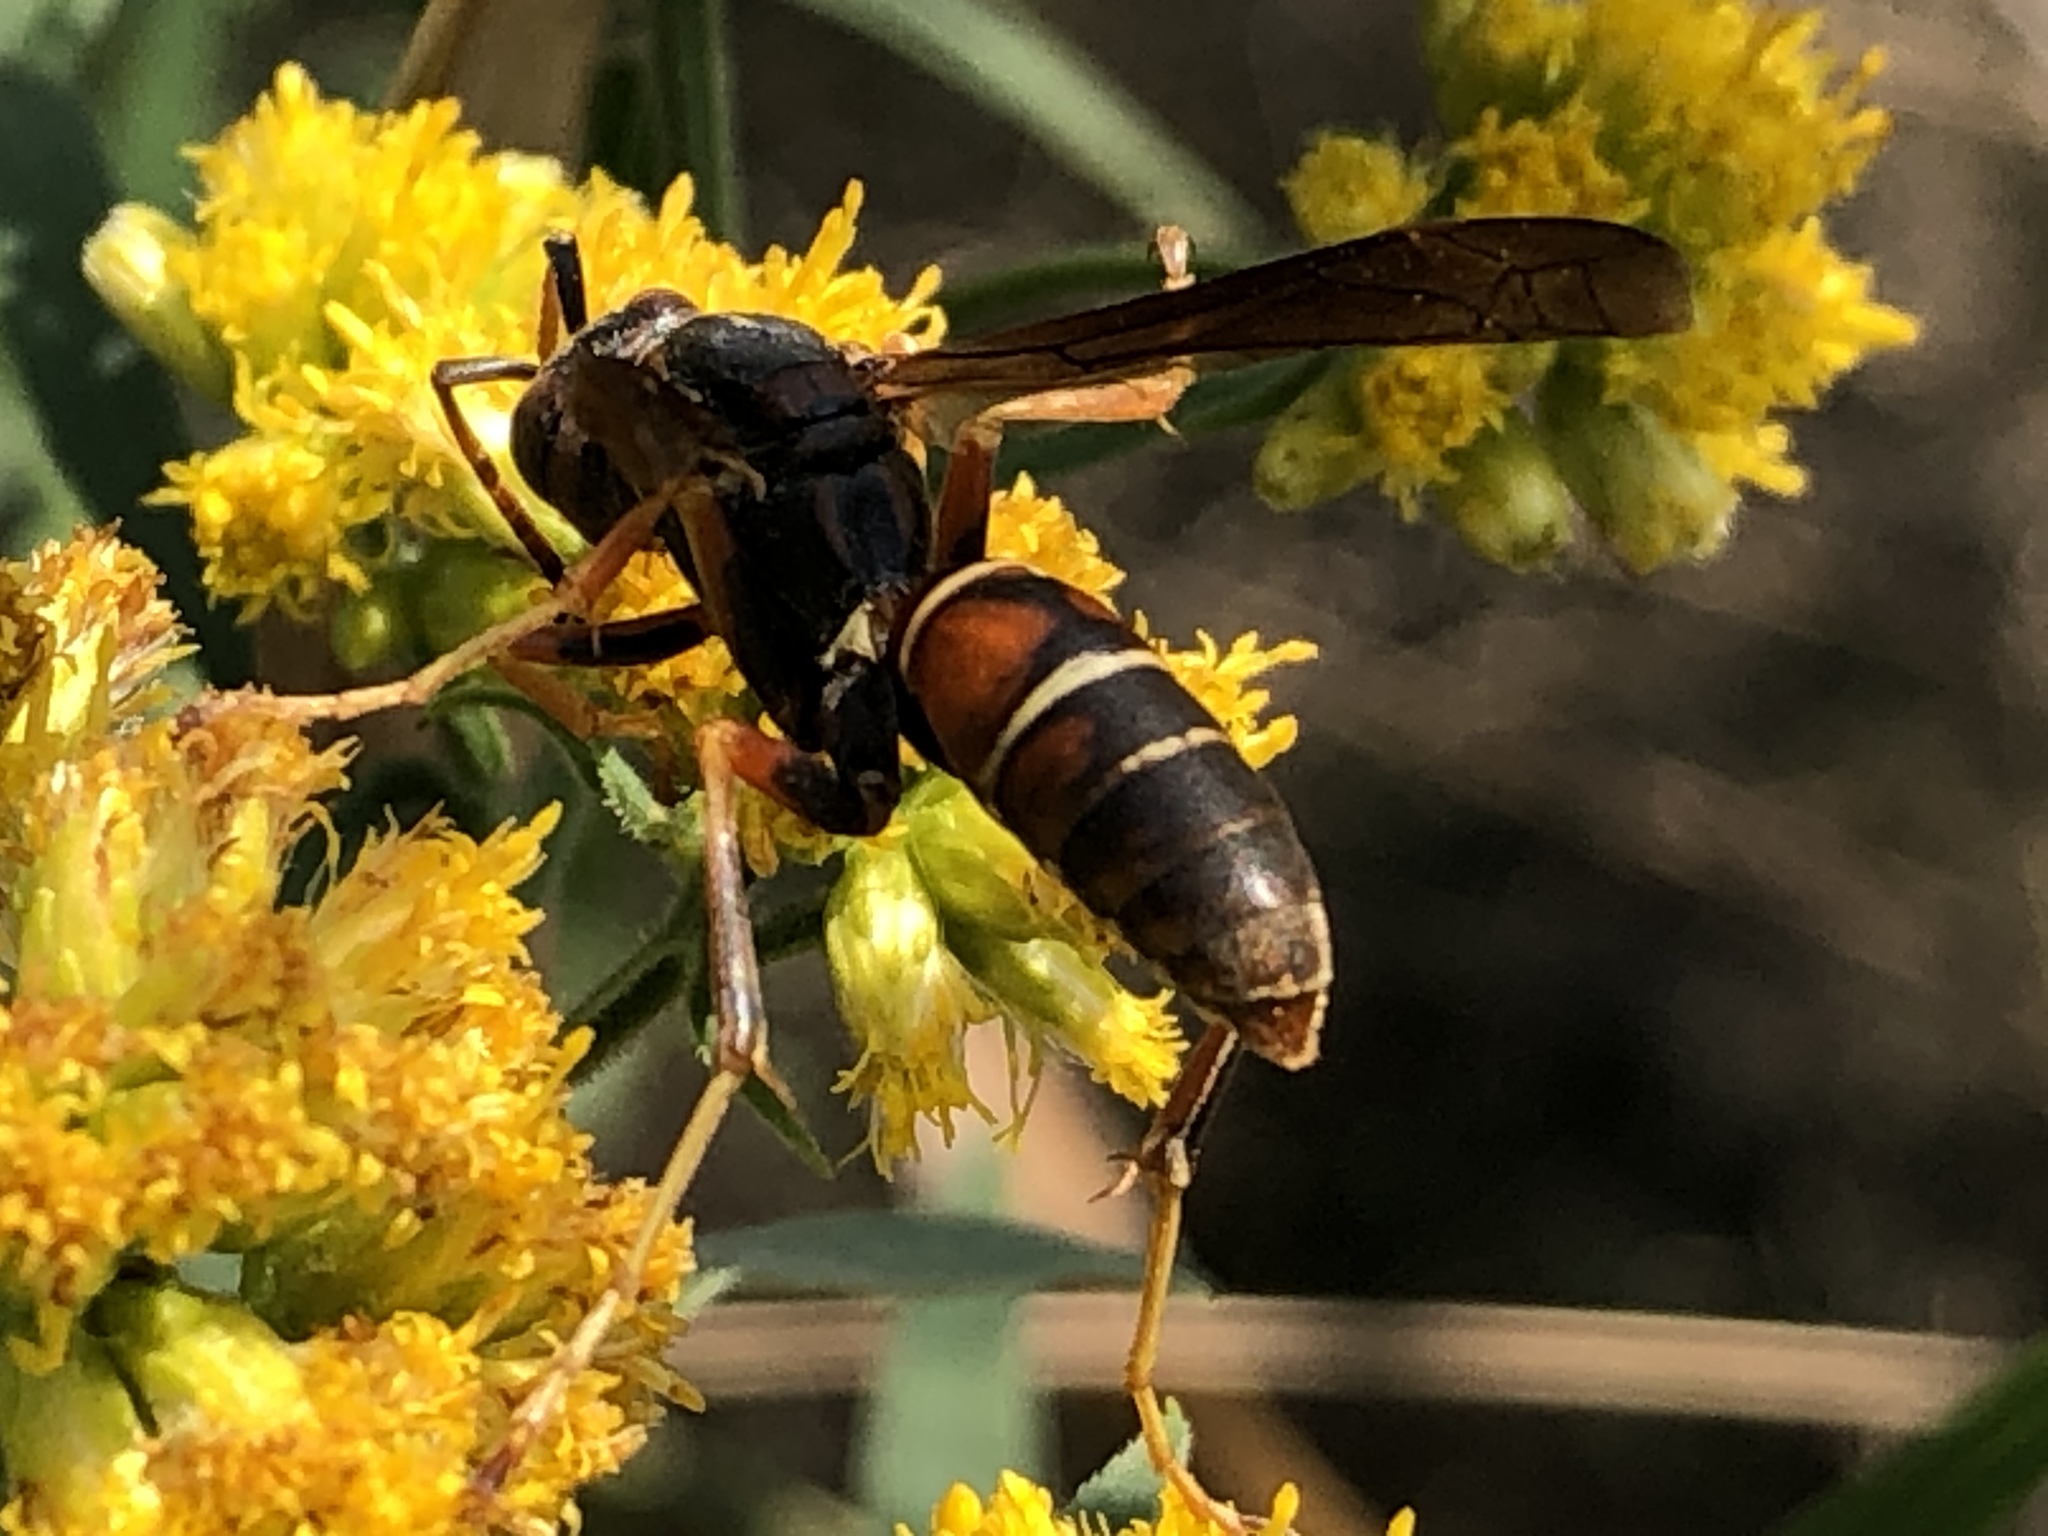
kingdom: Animalia
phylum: Arthropoda
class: Insecta
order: Hymenoptera
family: Eumenidae
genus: Polistes
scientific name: Polistes fuscatus
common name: Dark paper wasp
